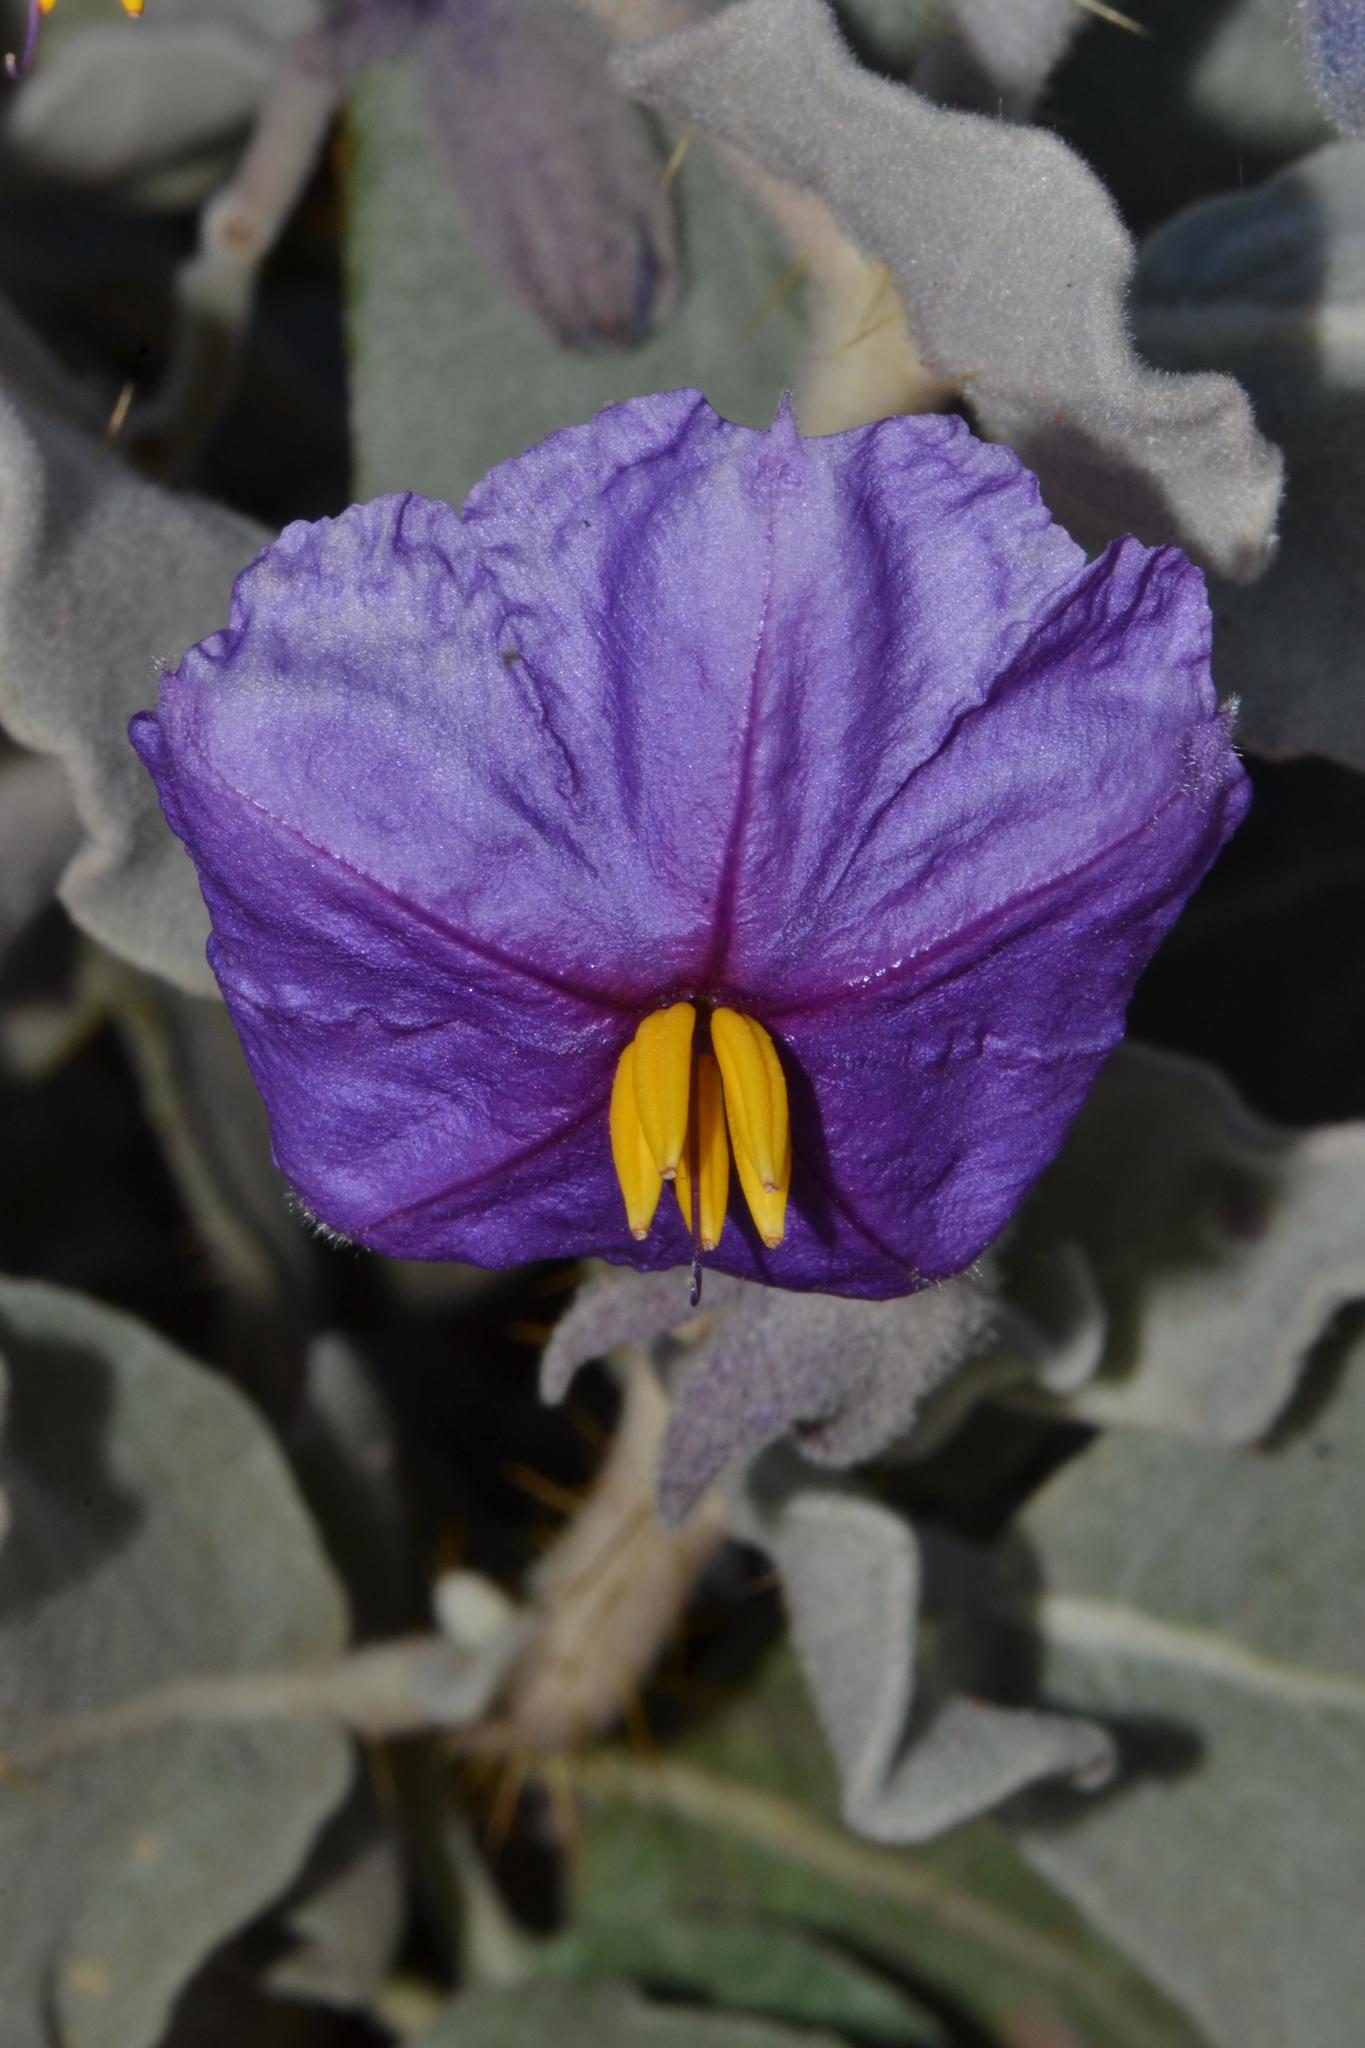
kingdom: Plantae
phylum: Tracheophyta
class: Magnoliopsida
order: Solanales
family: Solanaceae
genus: Solanum
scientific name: Solanum lasiophyllum
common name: Flannelbush
